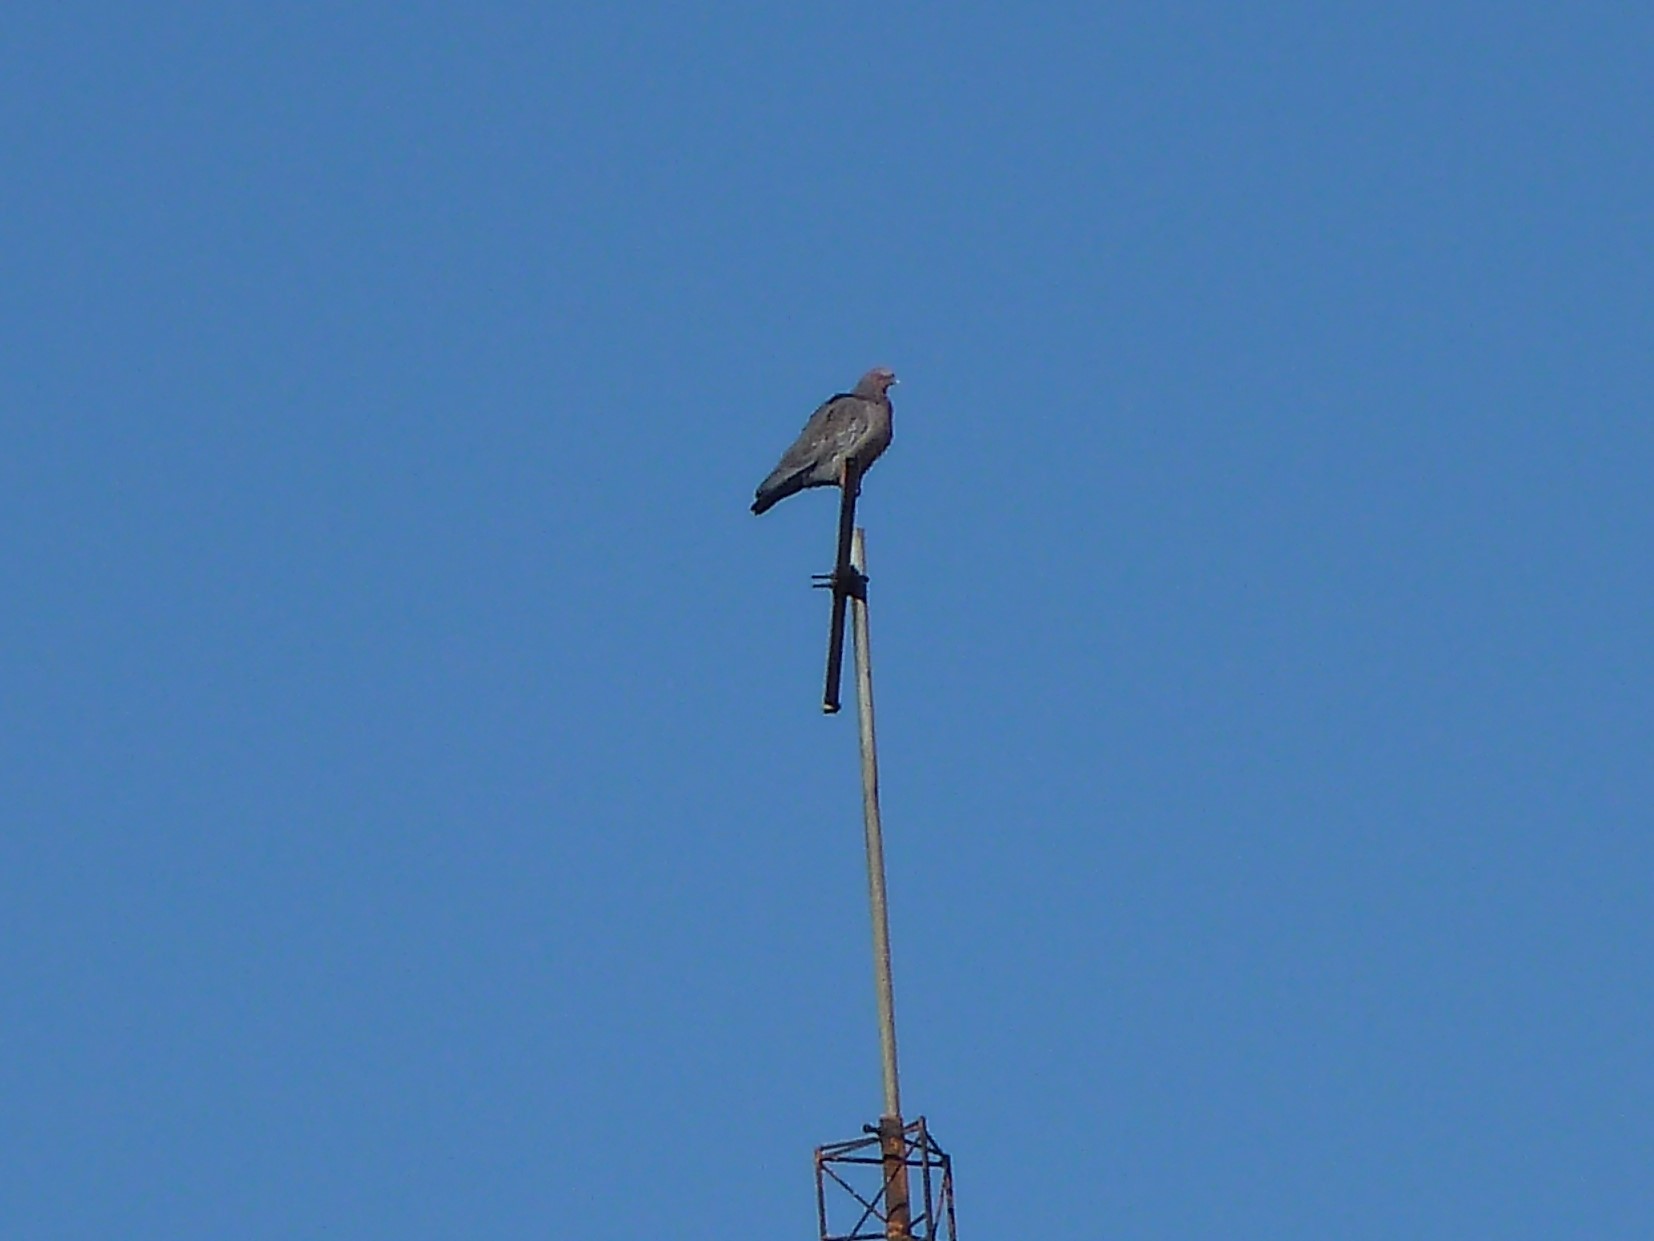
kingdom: Animalia
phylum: Chordata
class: Aves
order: Columbiformes
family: Columbidae
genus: Patagioenas
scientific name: Patagioenas picazuro
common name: Picazuro pigeon
